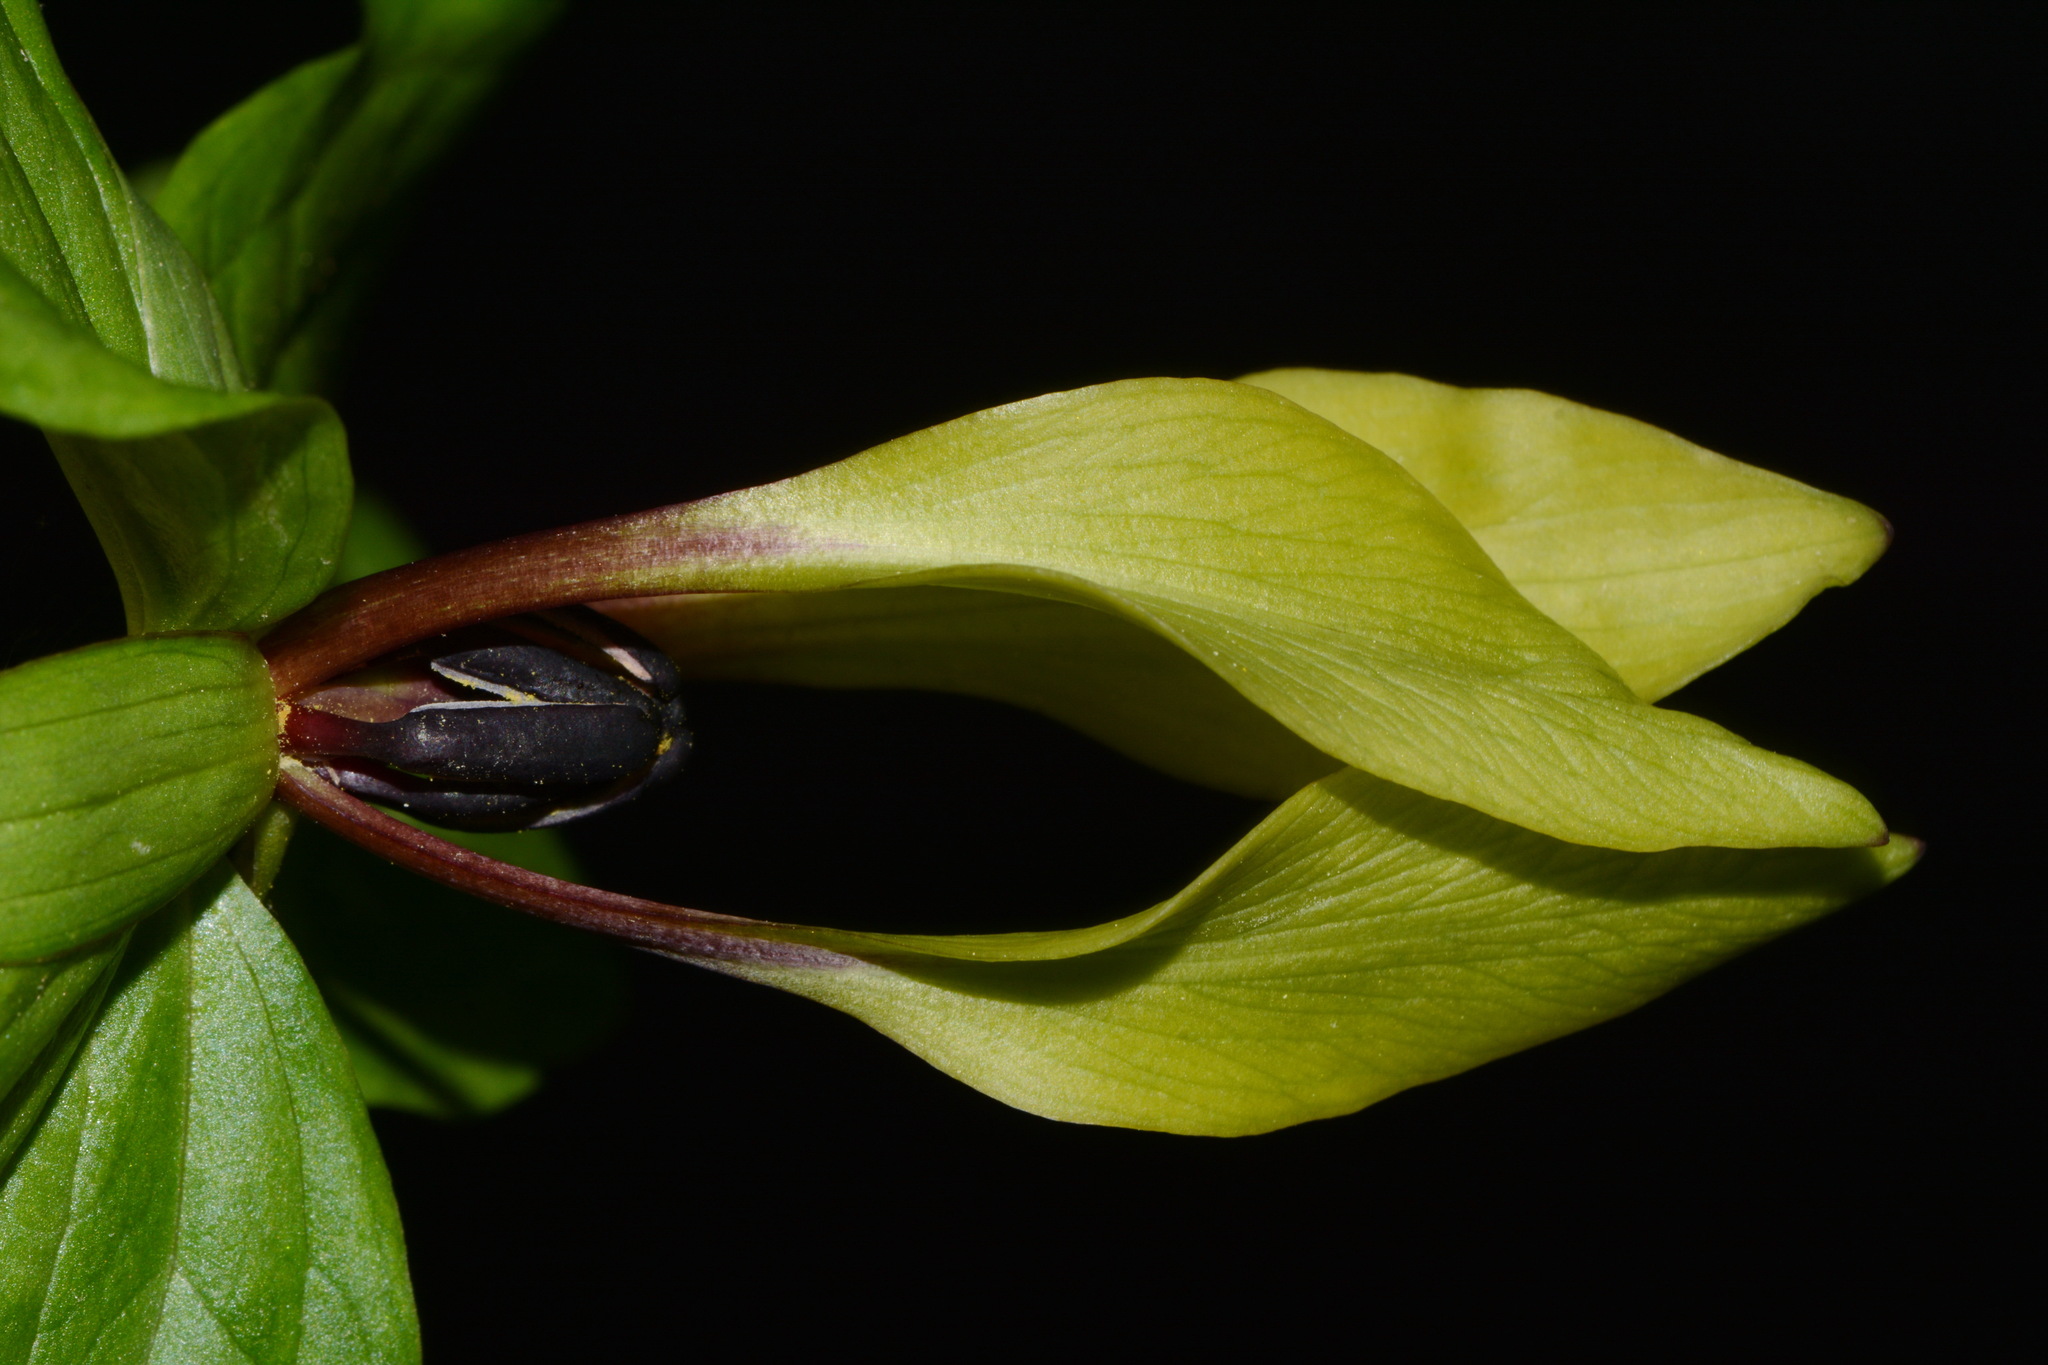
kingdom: Plantae
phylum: Tracheophyta
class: Liliopsida
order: Liliales
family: Melanthiaceae
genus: Trillium
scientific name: Trillium lancifolium
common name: Lance-leaved trillium
